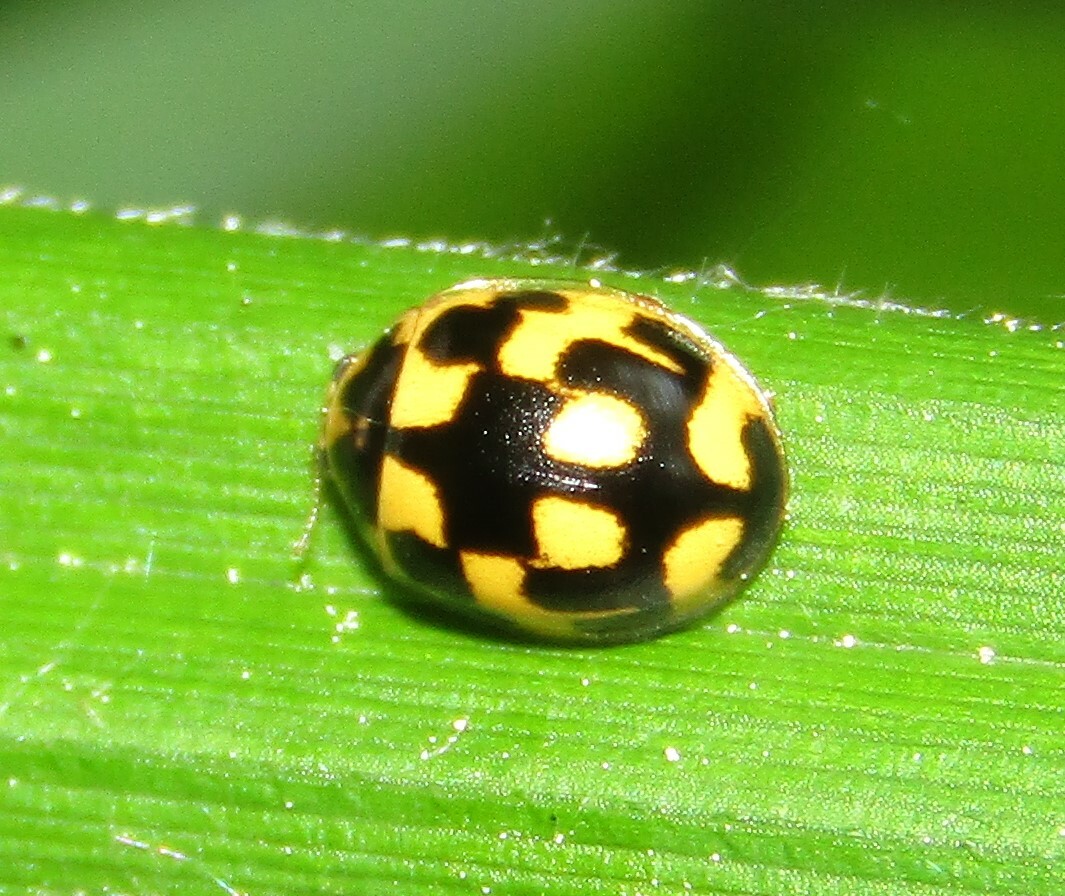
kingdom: Animalia
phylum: Arthropoda
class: Insecta
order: Coleoptera
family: Coccinellidae
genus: Propylaea
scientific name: Propylaea quatuordecimpunctata
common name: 14-spotted ladybird beetle
